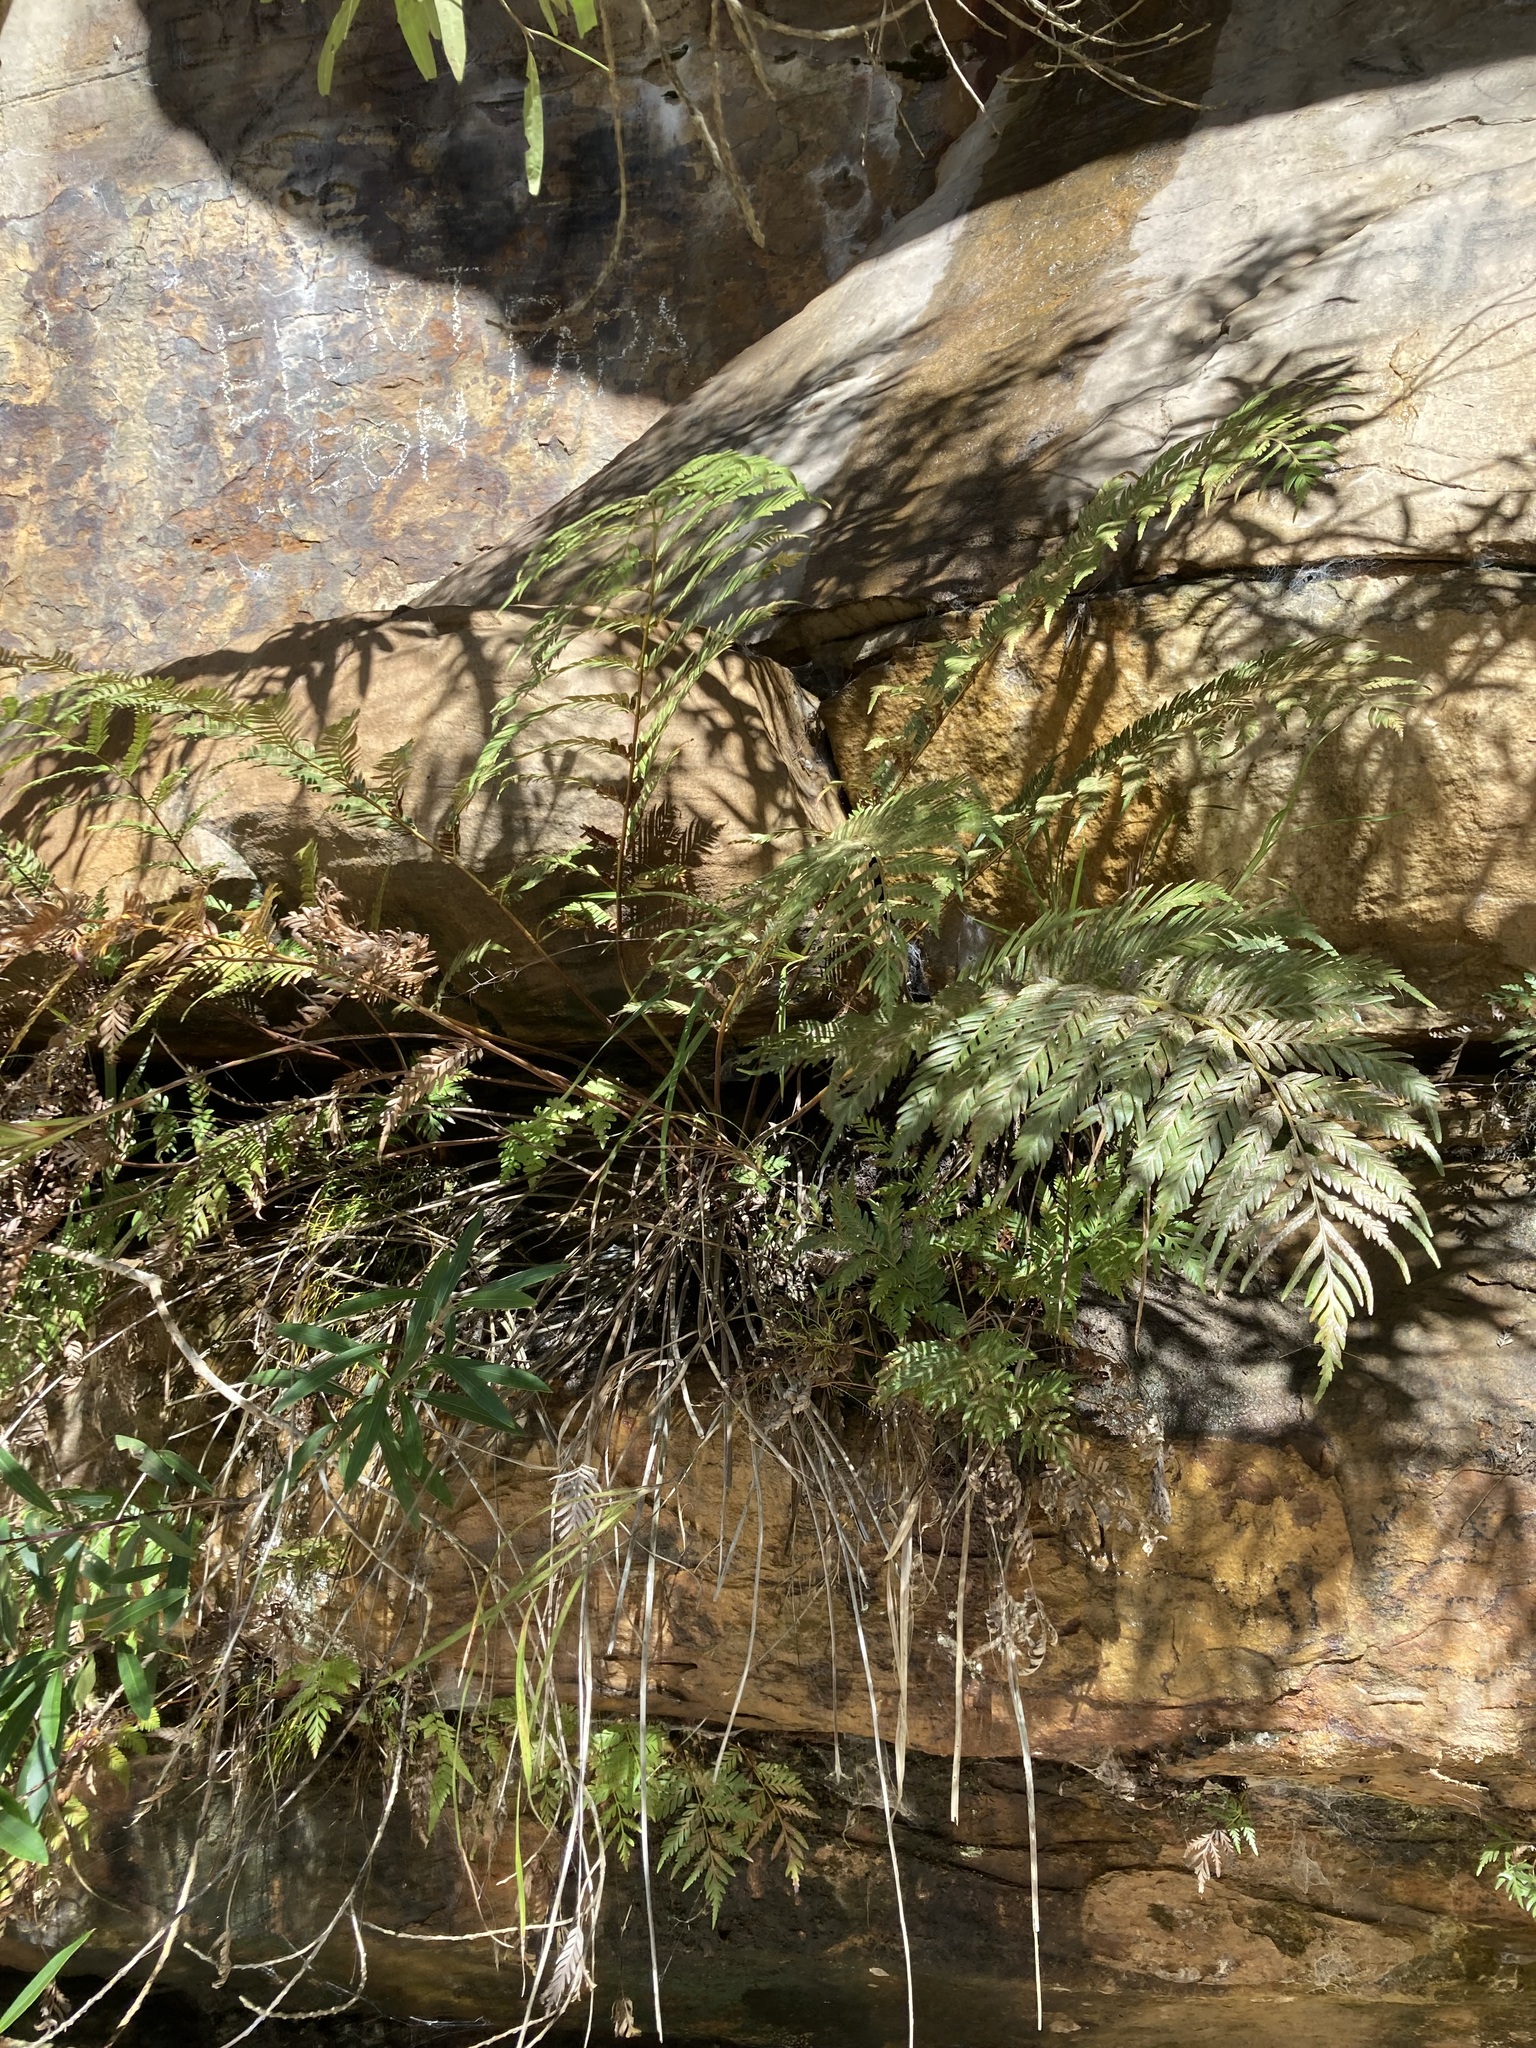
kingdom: Plantae
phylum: Tracheophyta
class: Polypodiopsida
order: Osmundales
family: Osmundaceae
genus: Todea
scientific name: Todea barbara
